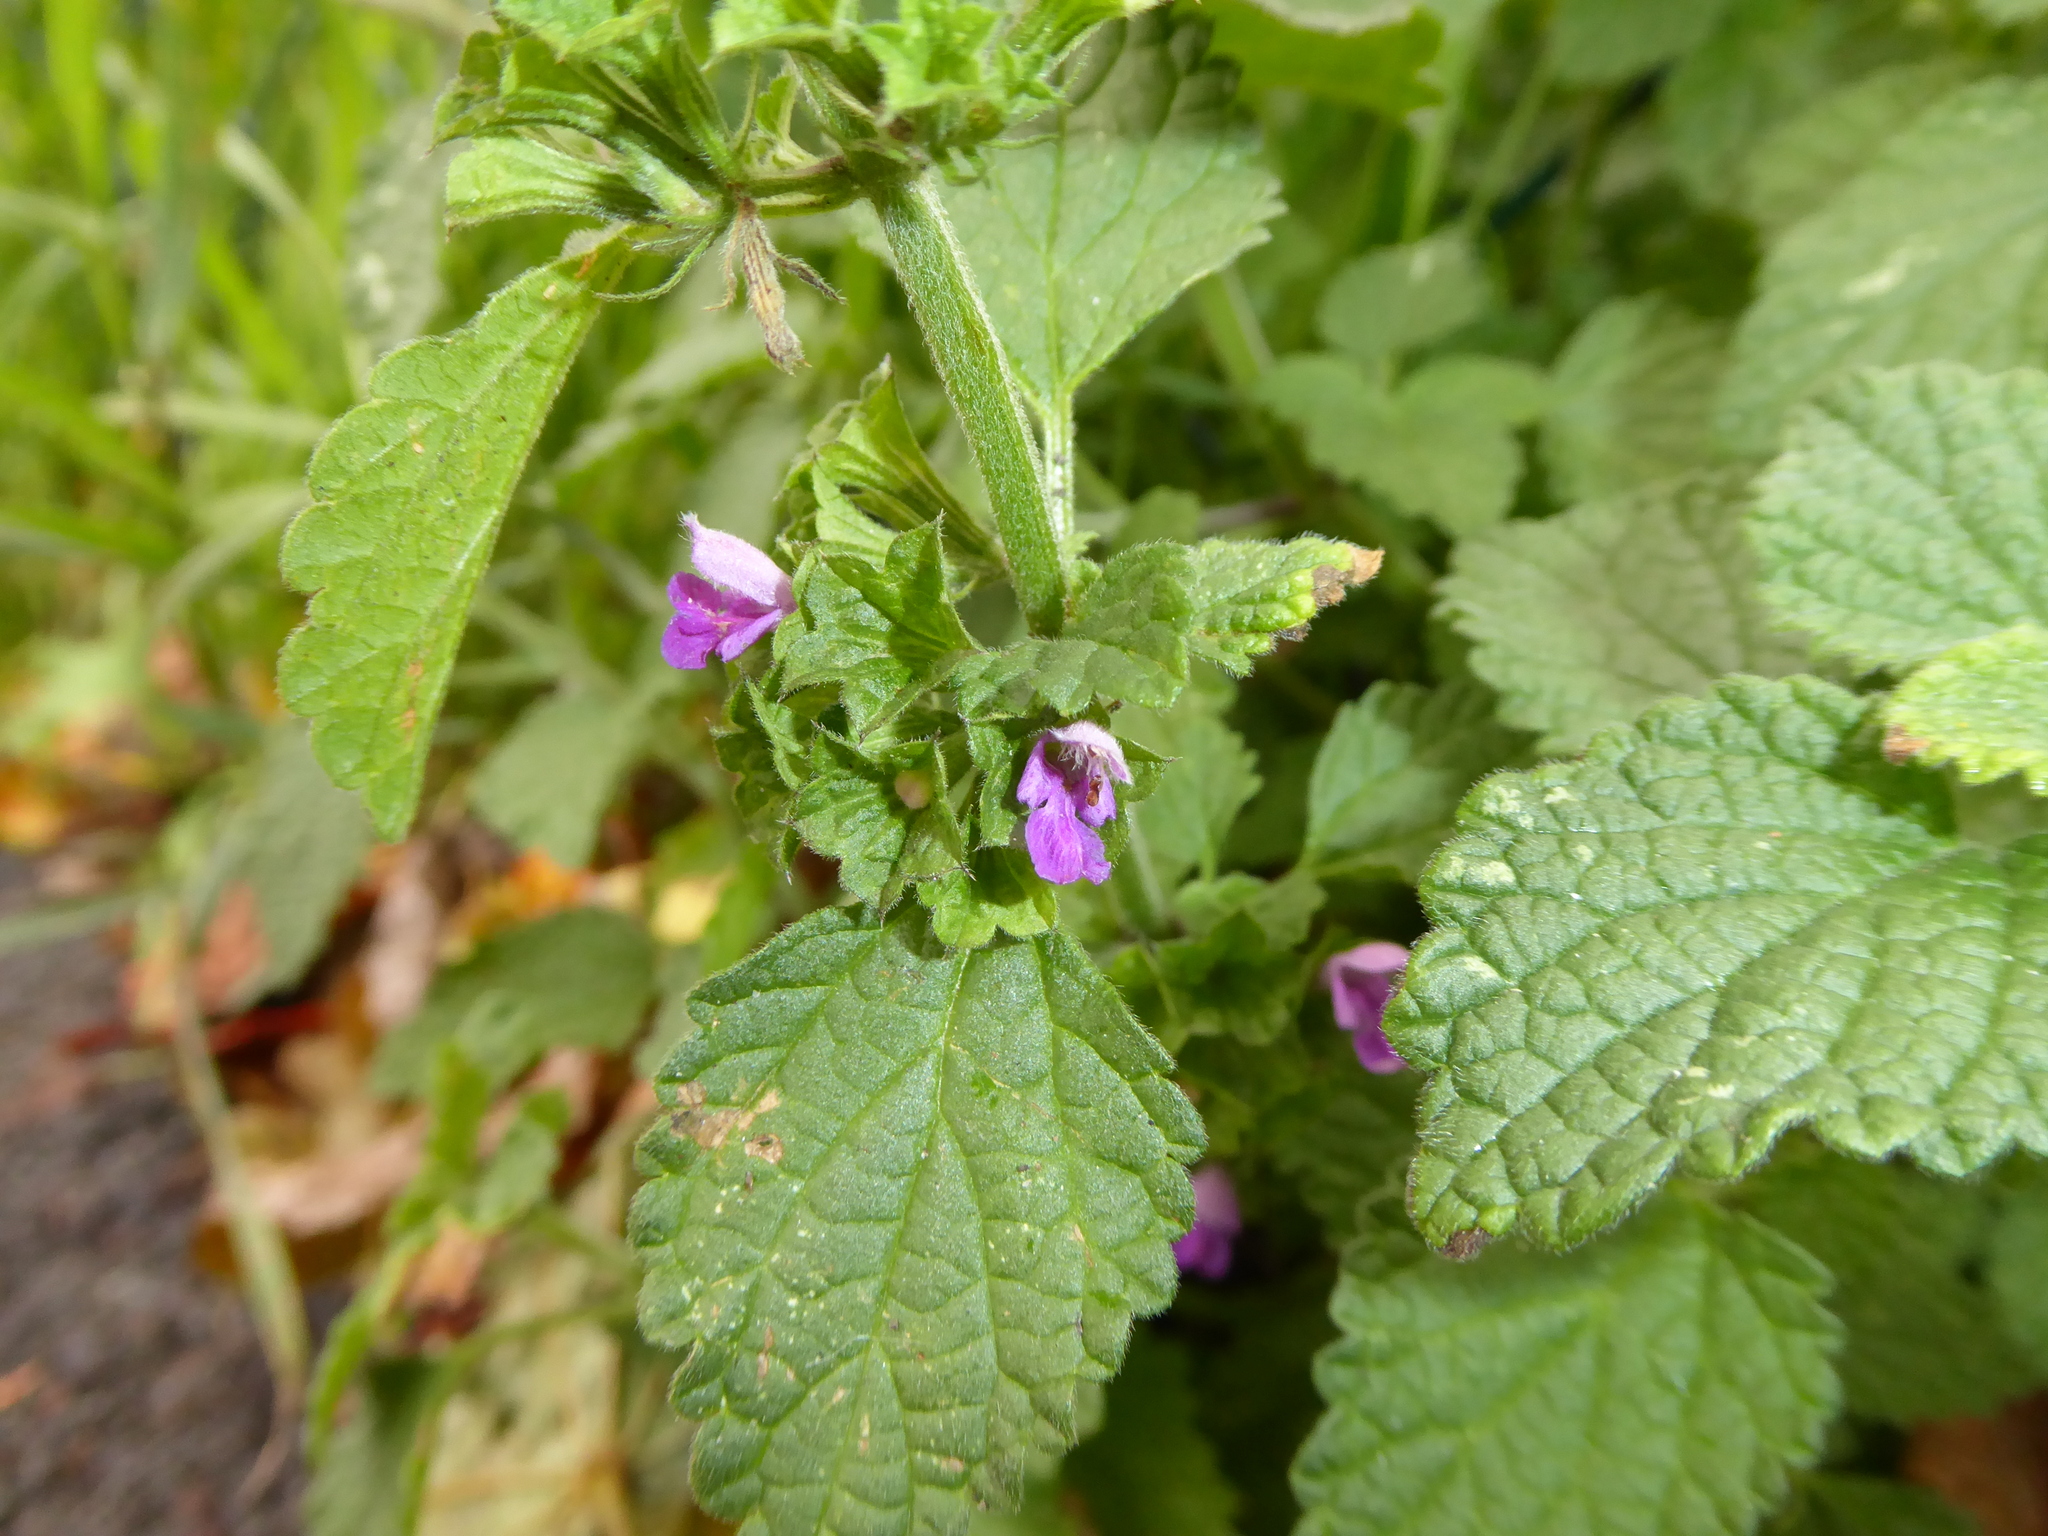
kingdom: Plantae
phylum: Tracheophyta
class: Magnoliopsida
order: Lamiales
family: Lamiaceae
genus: Ballota
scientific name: Ballota nigra
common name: Black horehound
